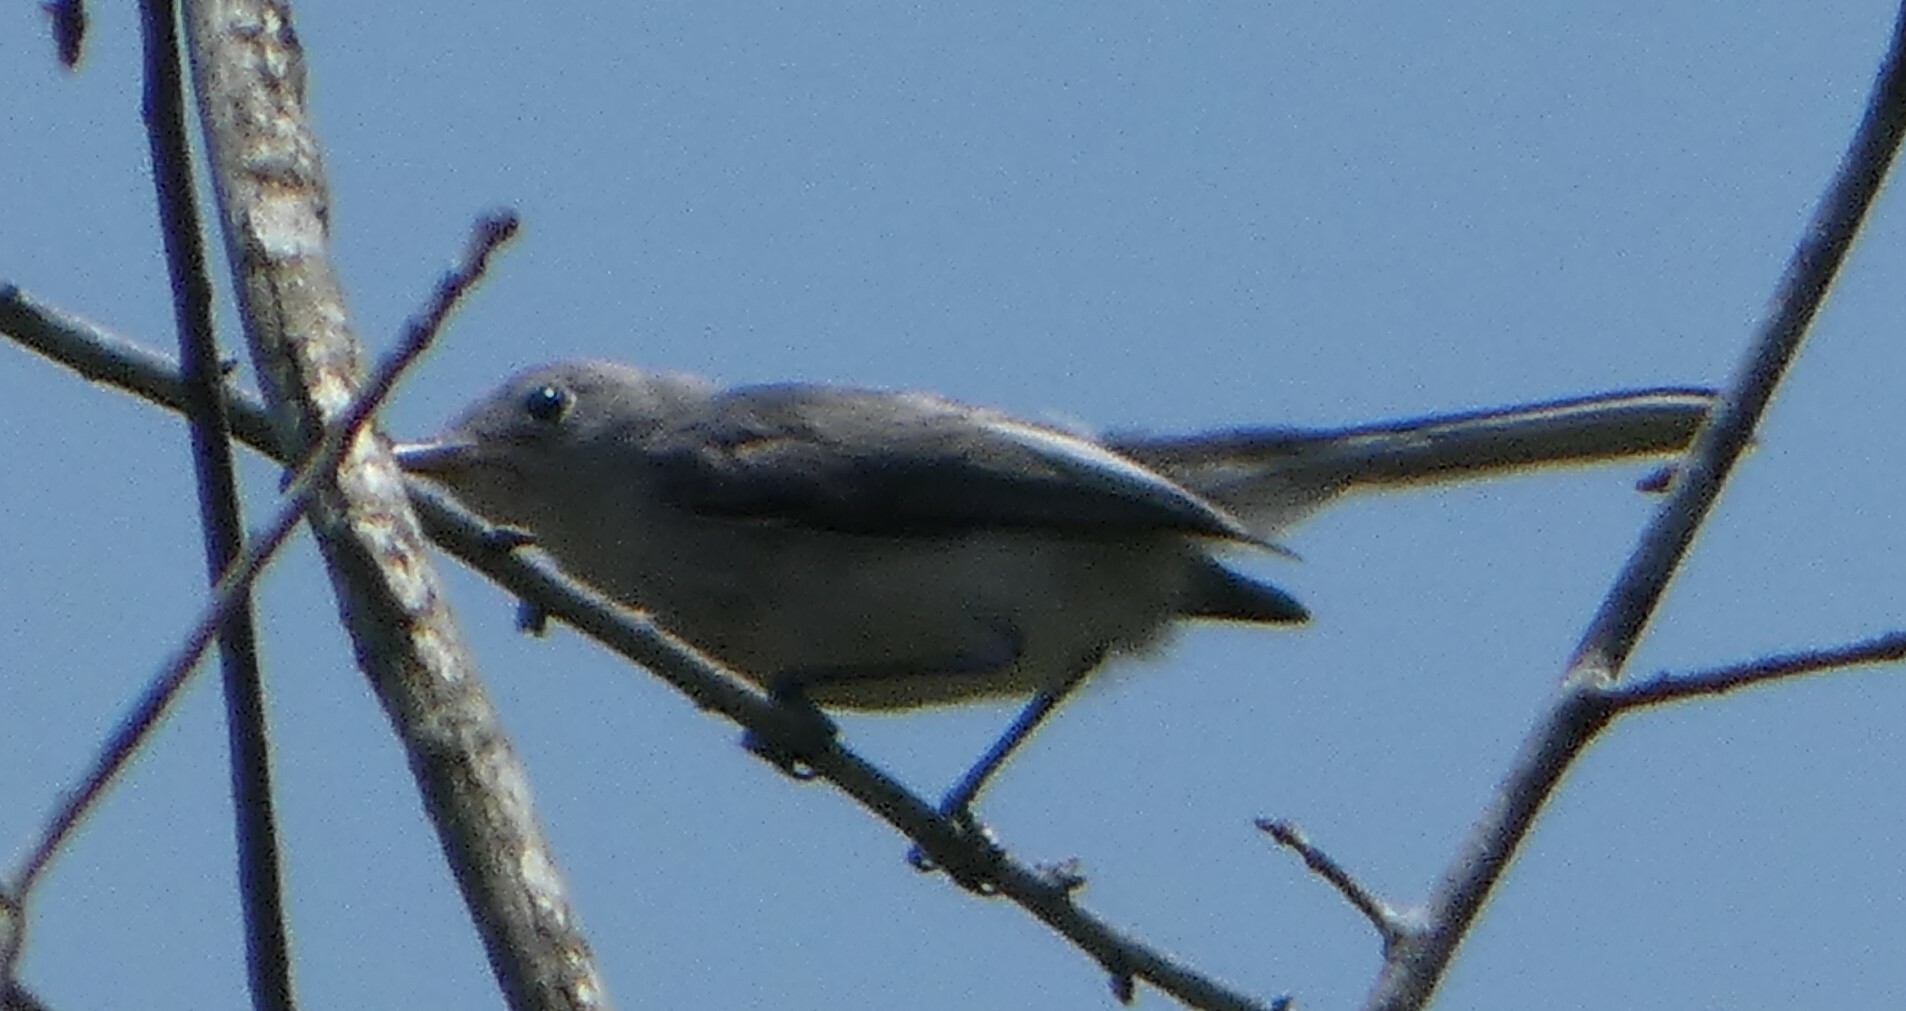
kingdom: Animalia
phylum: Chordata
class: Aves
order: Passeriformes
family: Polioptilidae
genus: Polioptila
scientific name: Polioptila caerulea
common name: Blue-gray gnatcatcher
